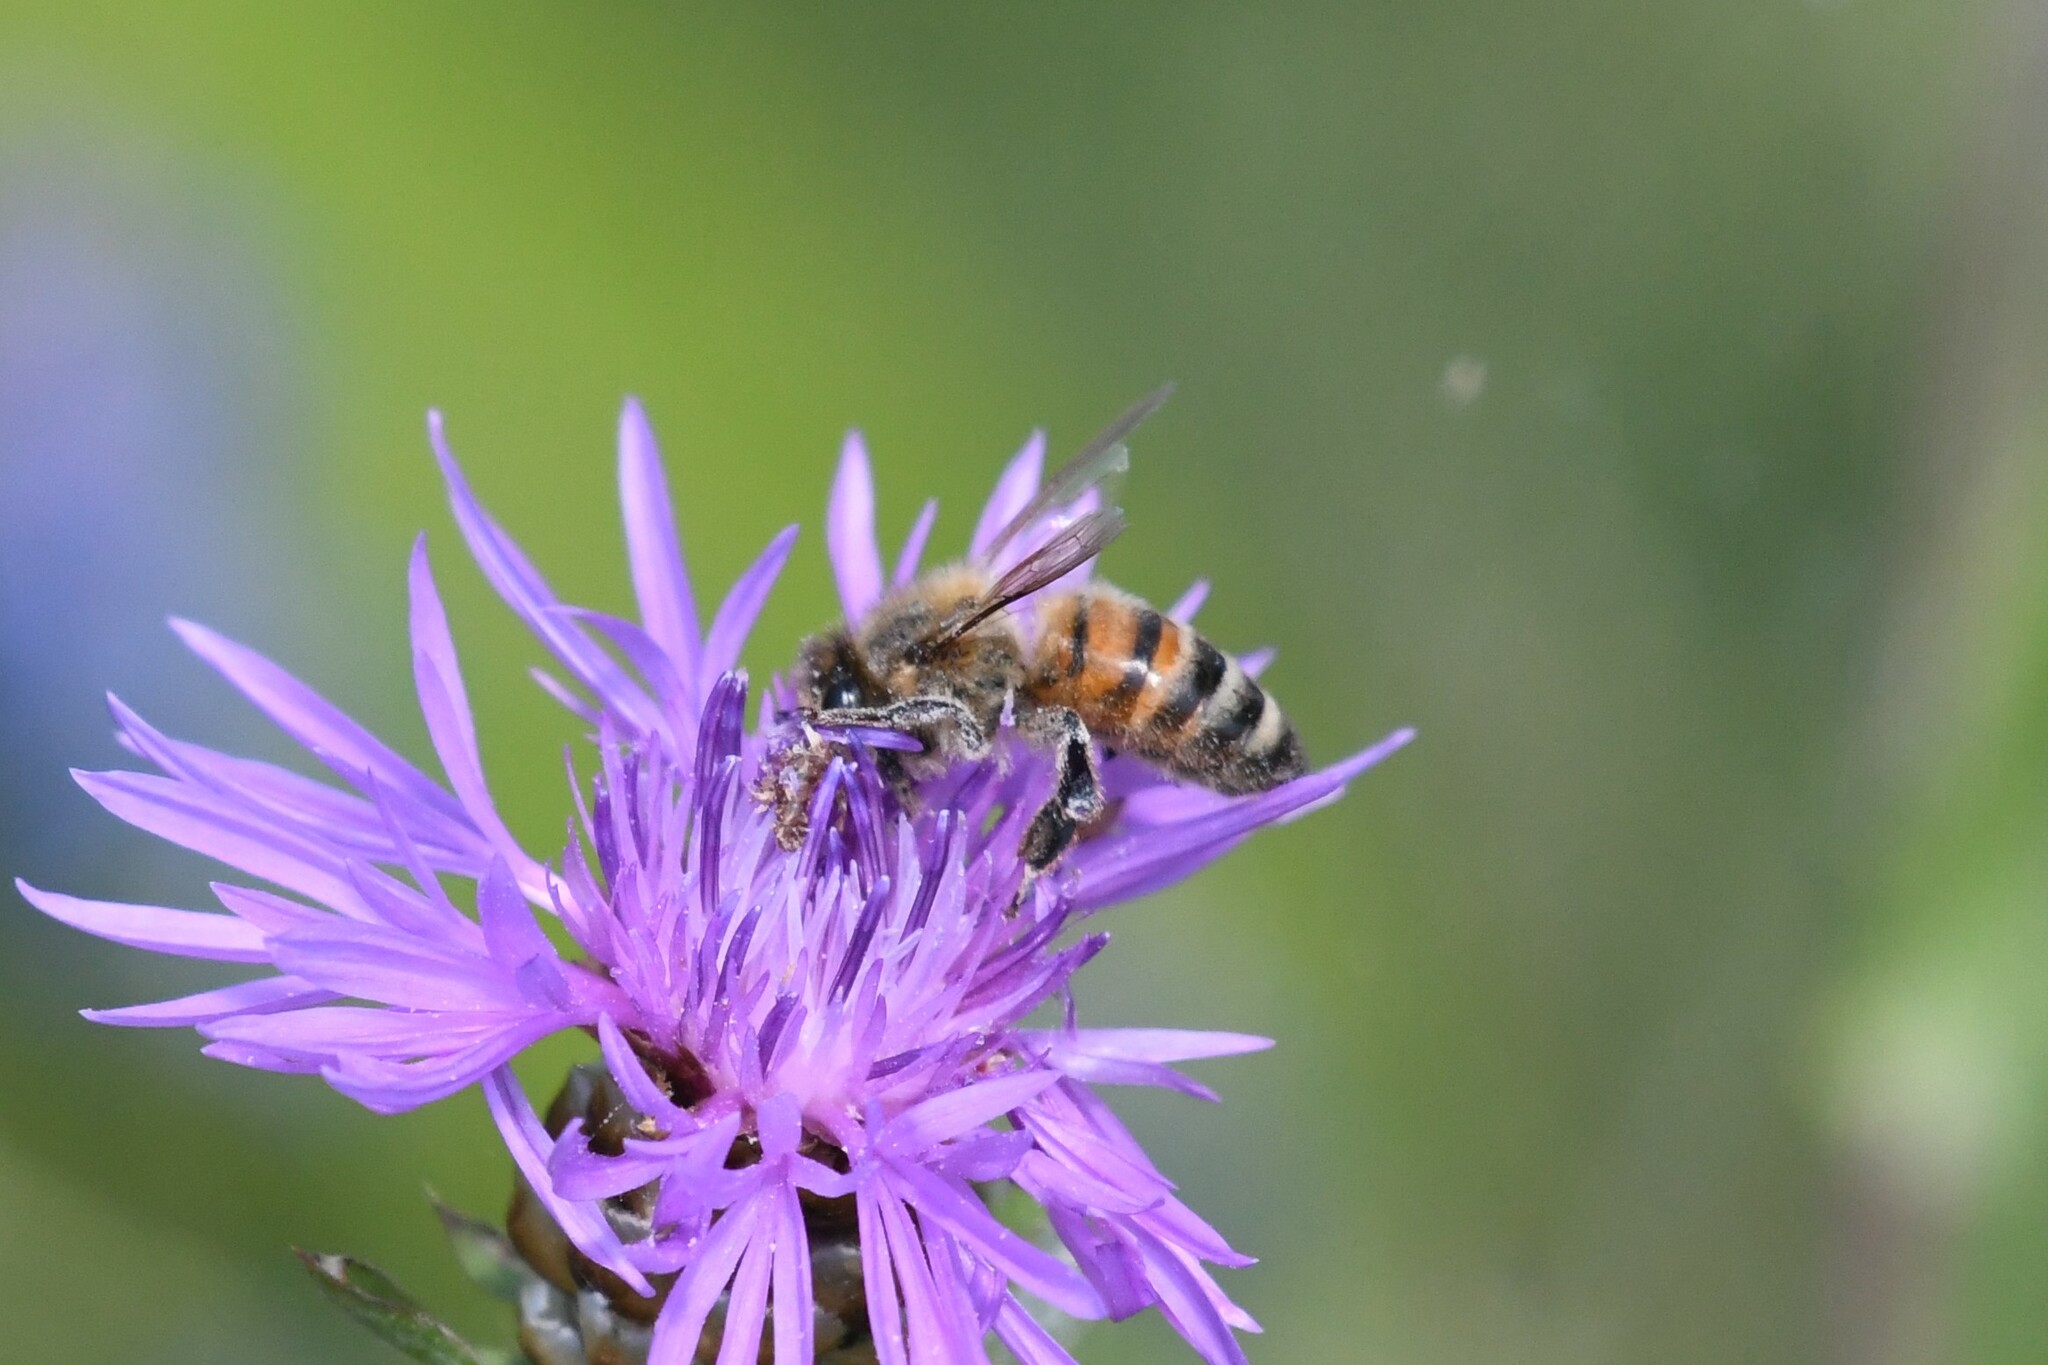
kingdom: Animalia
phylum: Arthropoda
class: Insecta
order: Hymenoptera
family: Apidae
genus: Apis
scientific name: Apis mellifera
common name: Honey bee
